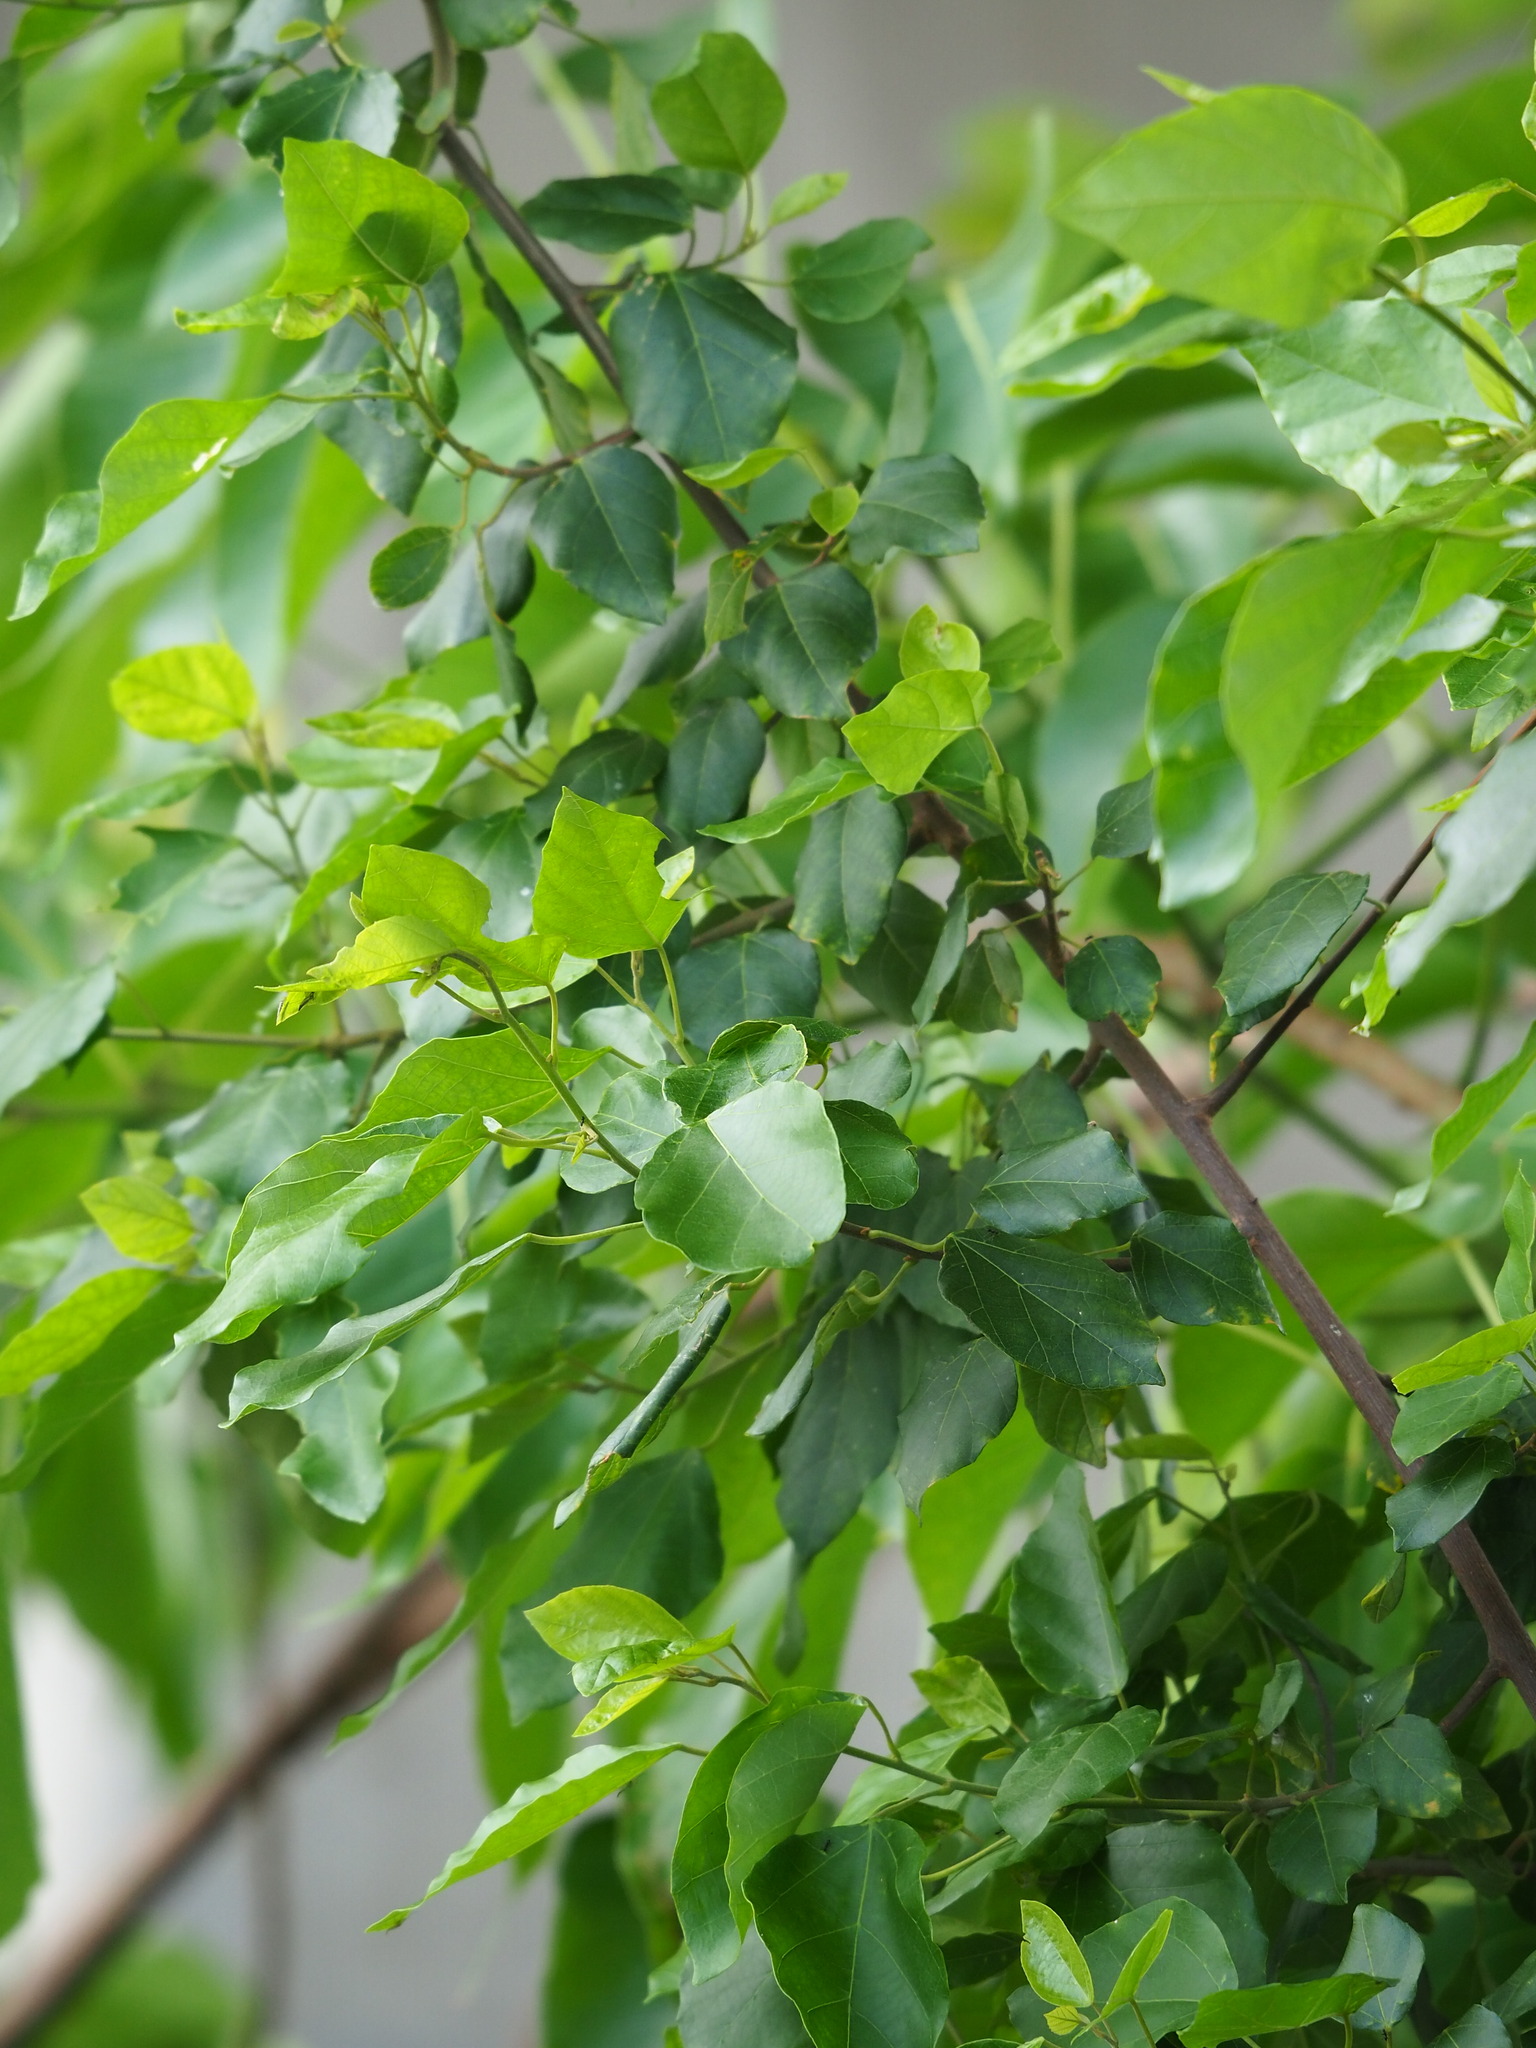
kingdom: Plantae
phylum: Tracheophyta
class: Magnoliopsida
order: Malpighiales
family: Euphorbiaceae
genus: Mallotus
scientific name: Mallotus repandus
